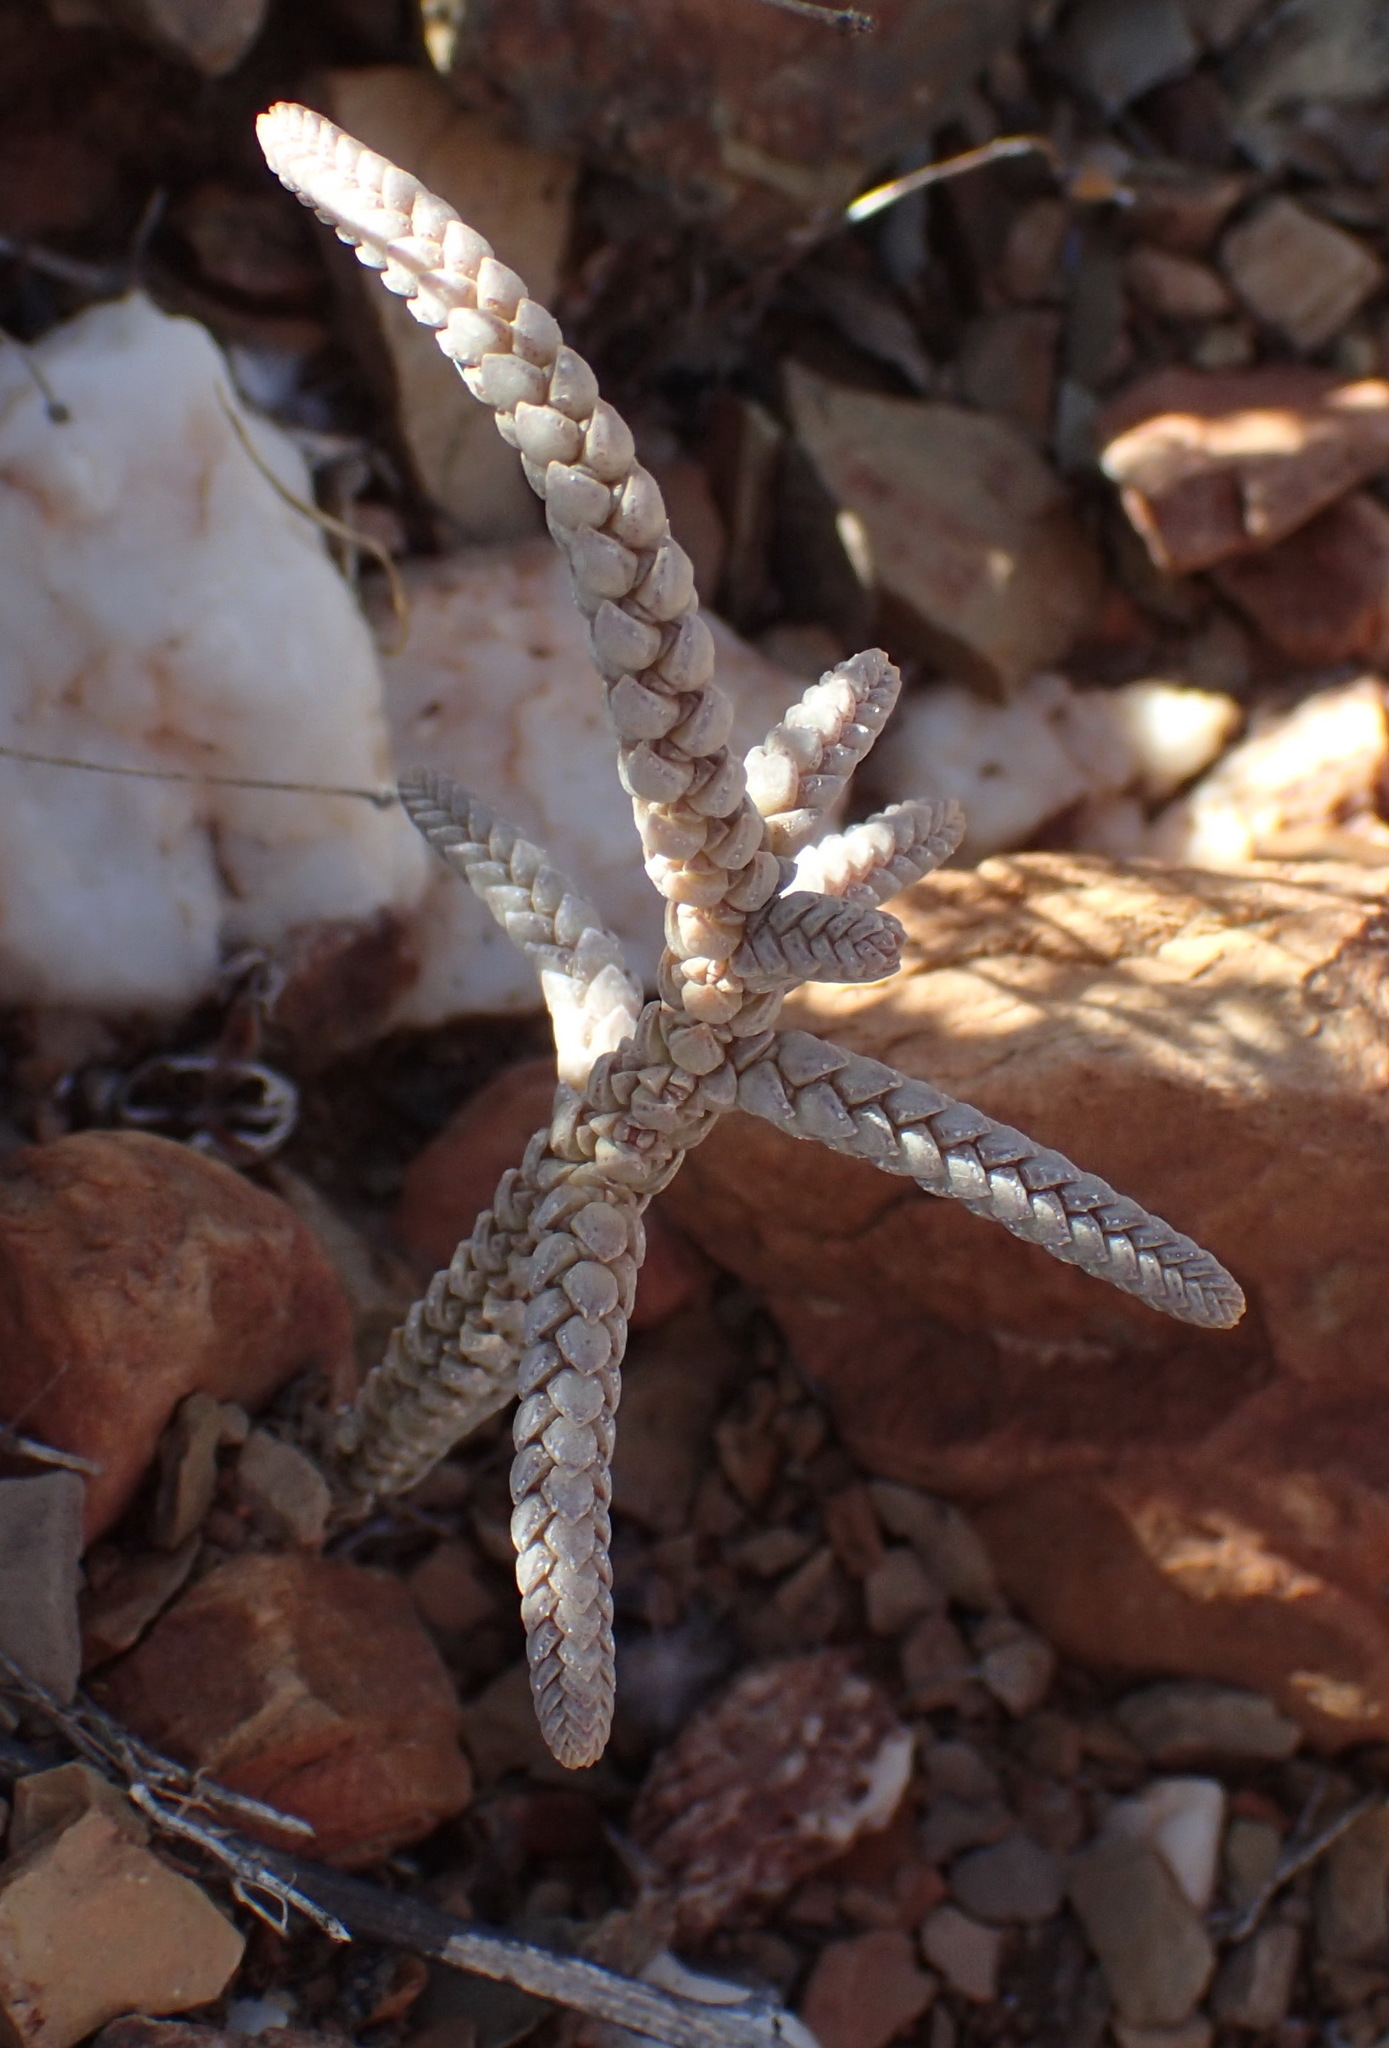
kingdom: Plantae
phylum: Tracheophyta
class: Magnoliopsida
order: Saxifragales
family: Crassulaceae
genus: Crassula
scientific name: Crassula muscosa
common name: Toy-cypress
